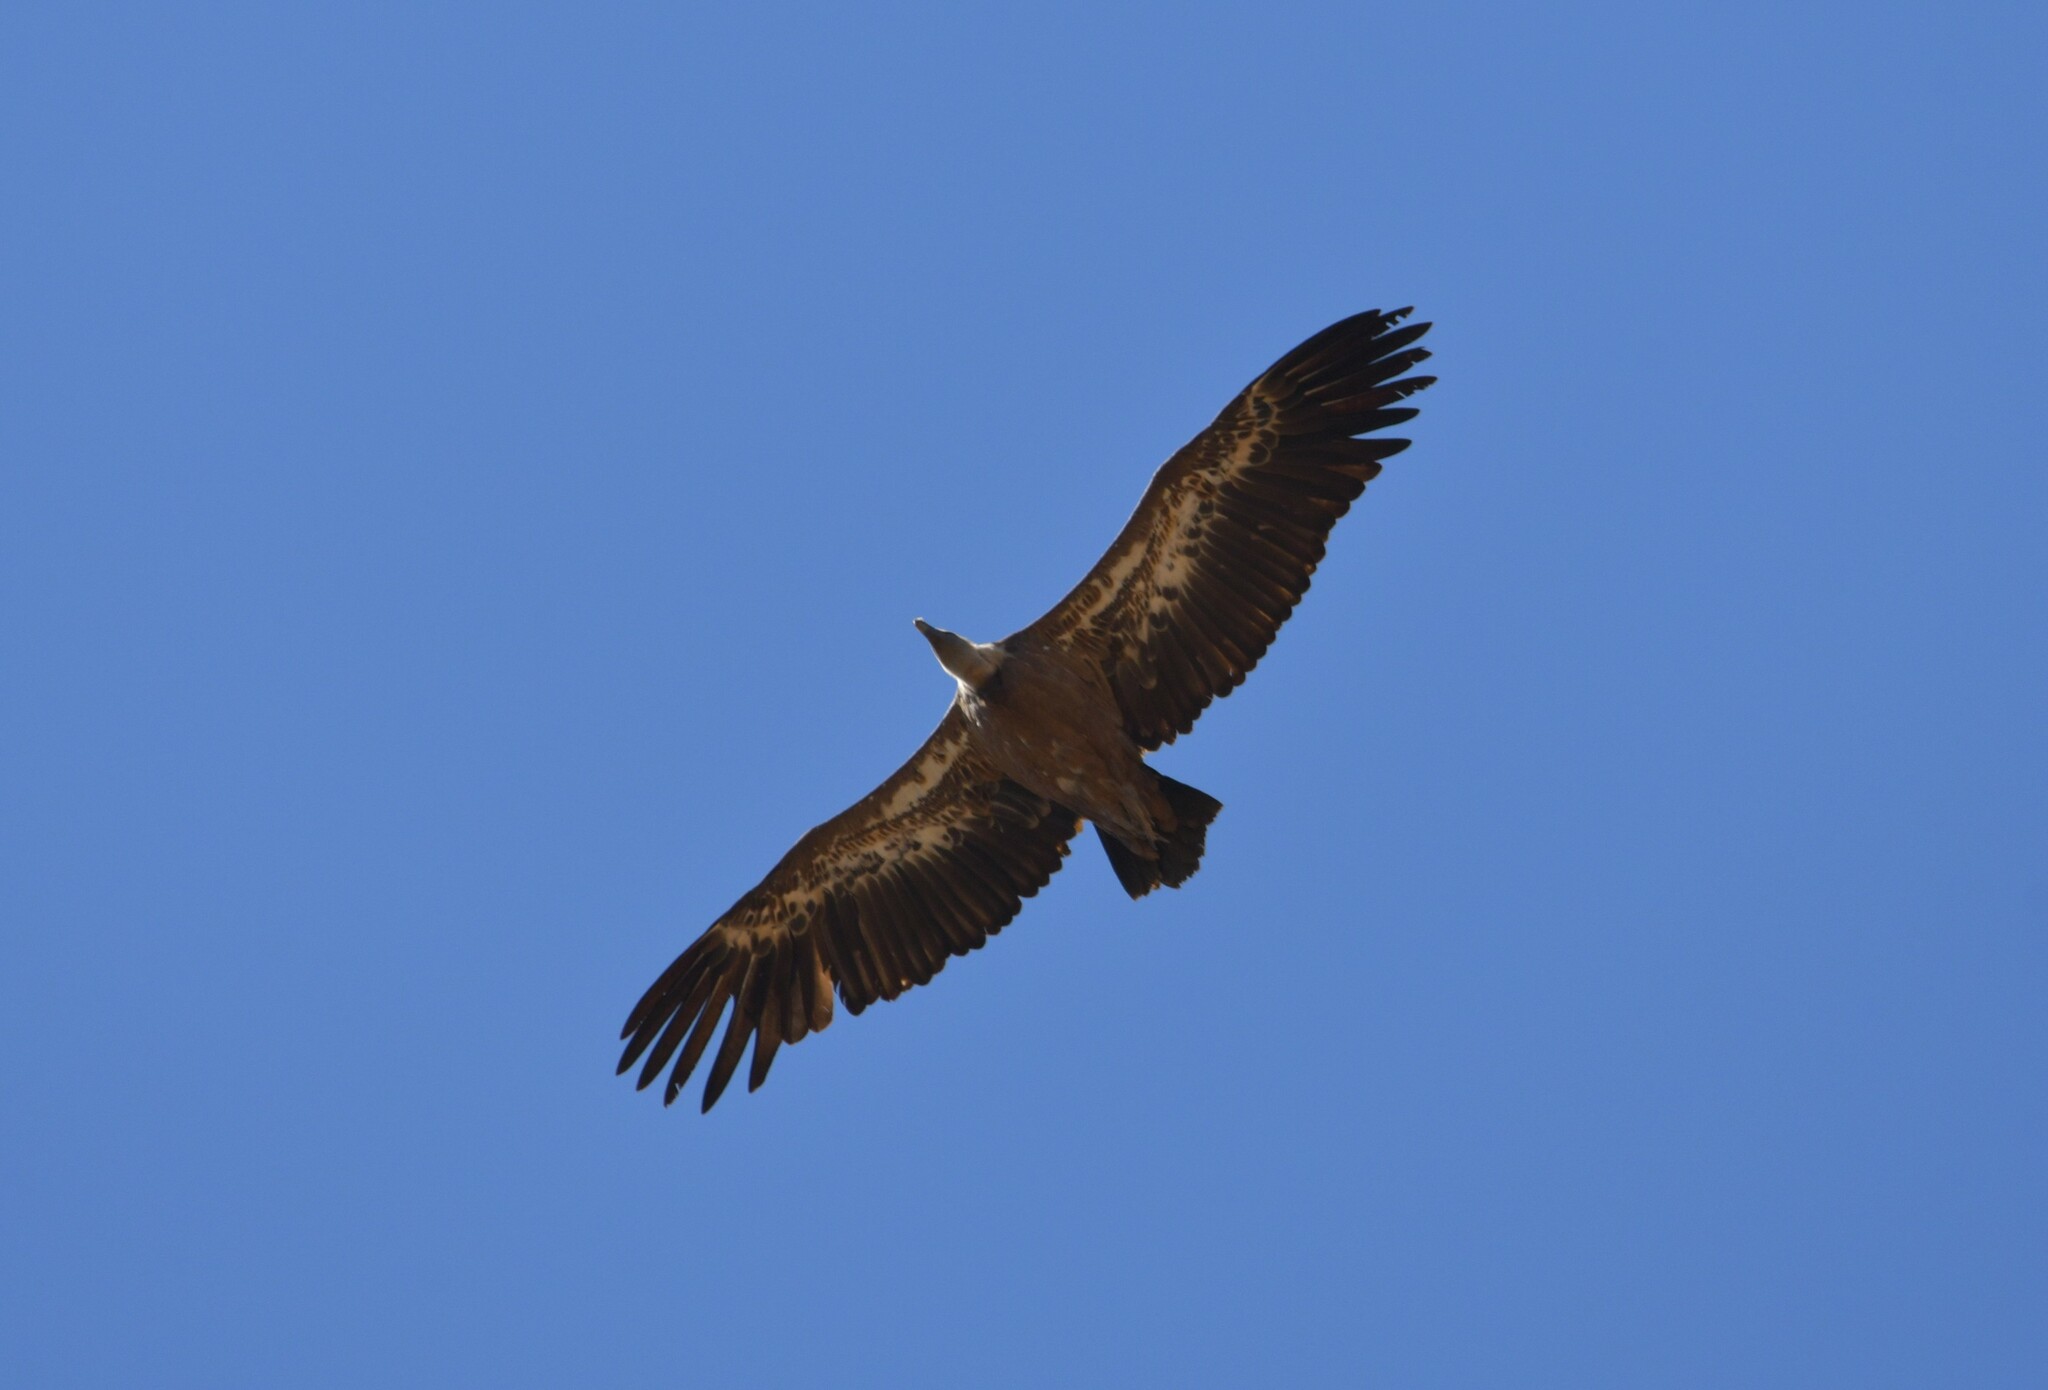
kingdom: Animalia
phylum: Chordata
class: Aves
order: Accipitriformes
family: Accipitridae
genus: Gyps
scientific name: Gyps fulvus
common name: Griffon vulture
